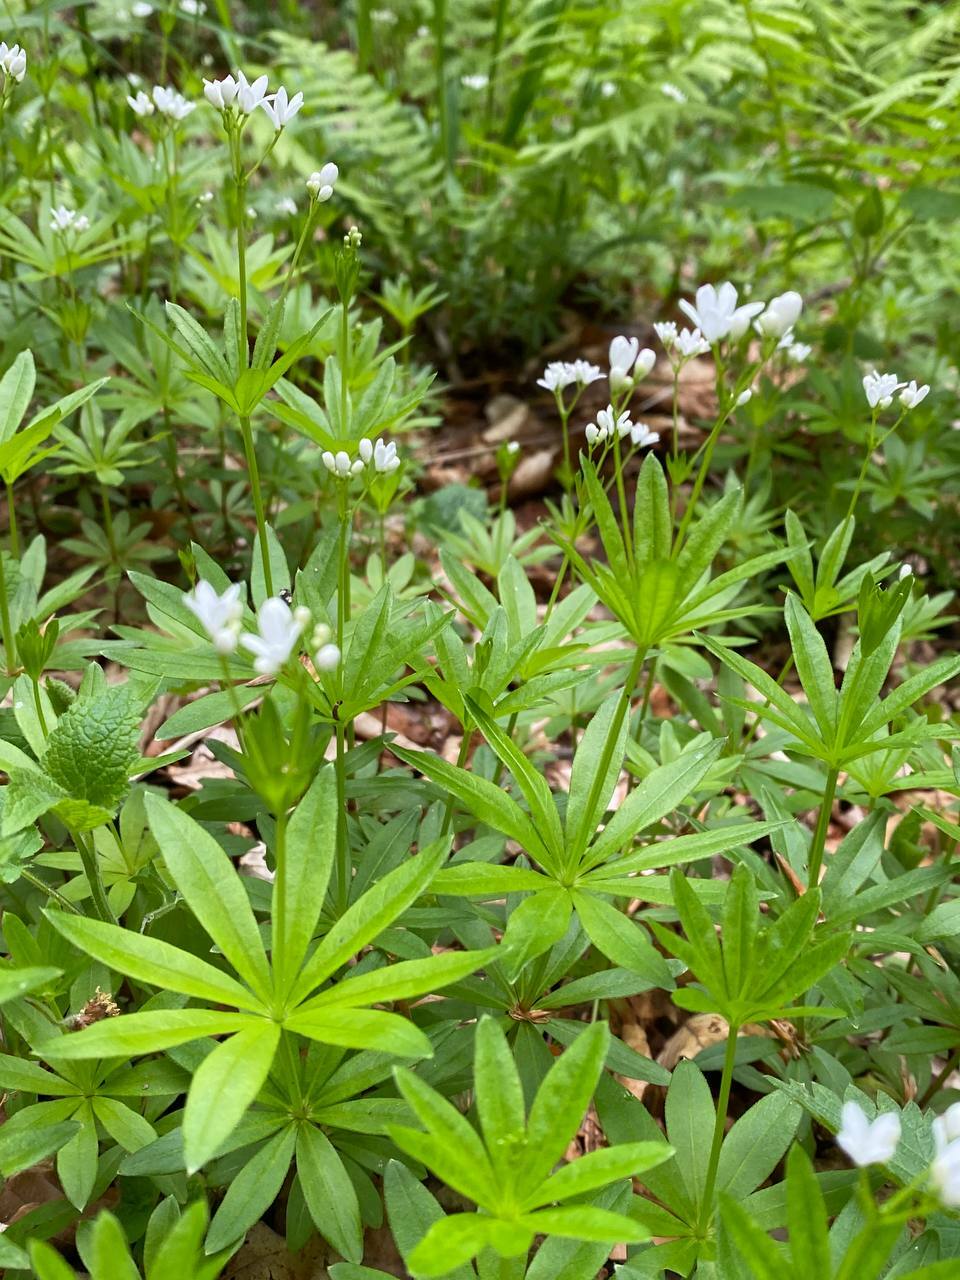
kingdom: Plantae
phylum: Tracheophyta
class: Magnoliopsida
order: Gentianales
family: Rubiaceae
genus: Galium
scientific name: Galium odoratum
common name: Sweet woodruff
